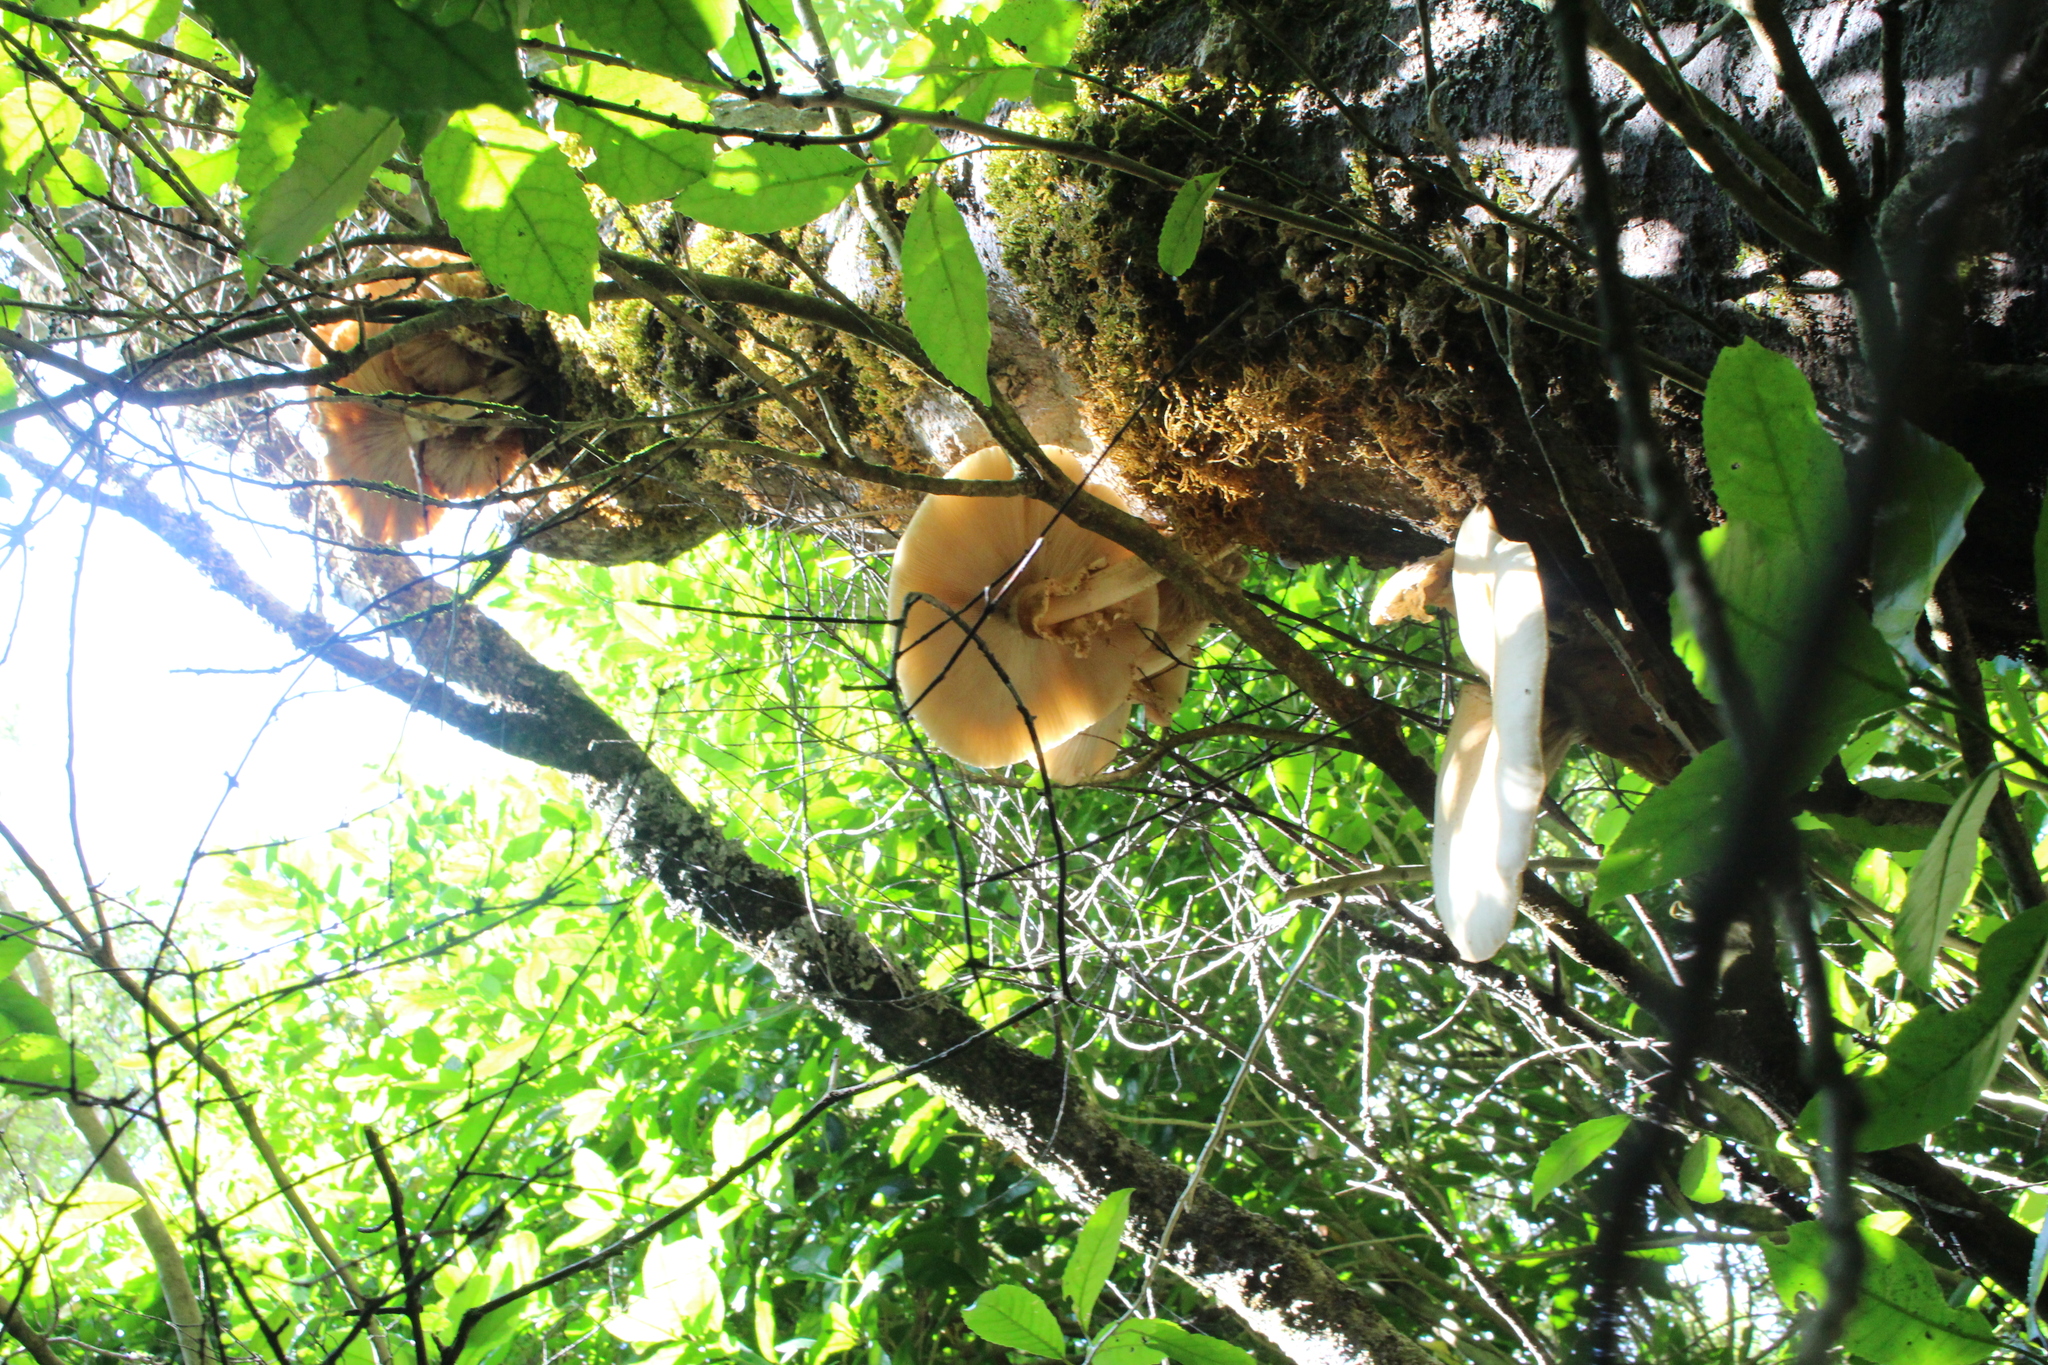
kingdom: Fungi
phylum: Basidiomycota
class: Agaricomycetes
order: Agaricales
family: Tubariaceae
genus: Cyclocybe
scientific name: Cyclocybe parasitica
